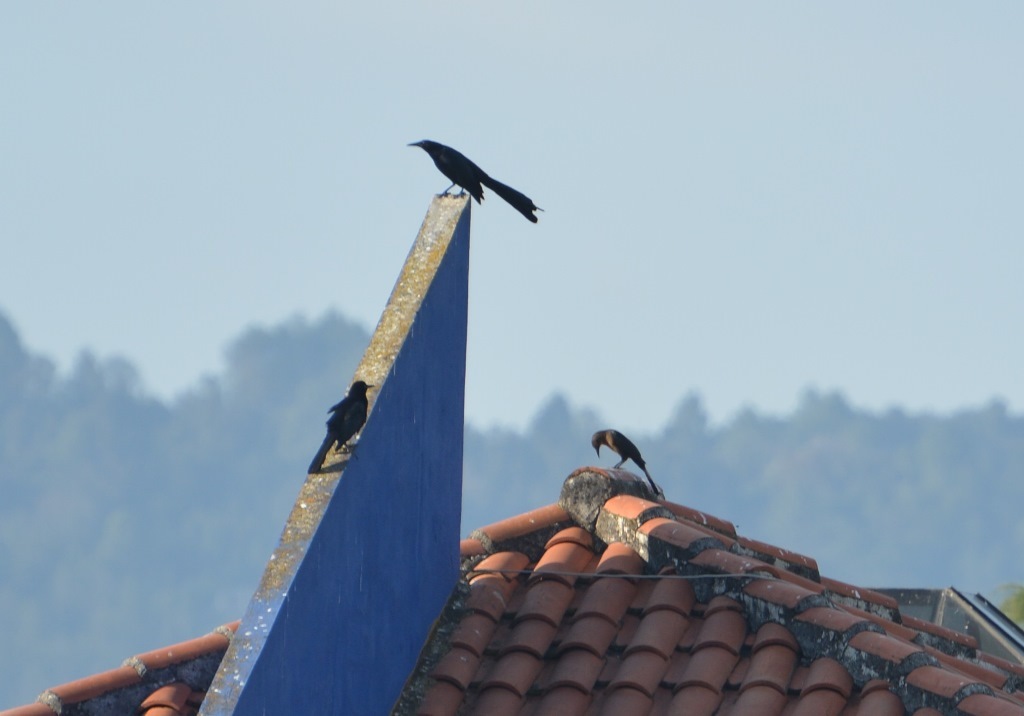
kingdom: Animalia
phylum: Chordata
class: Aves
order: Passeriformes
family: Icteridae
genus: Quiscalus
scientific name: Quiscalus mexicanus
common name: Great-tailed grackle
